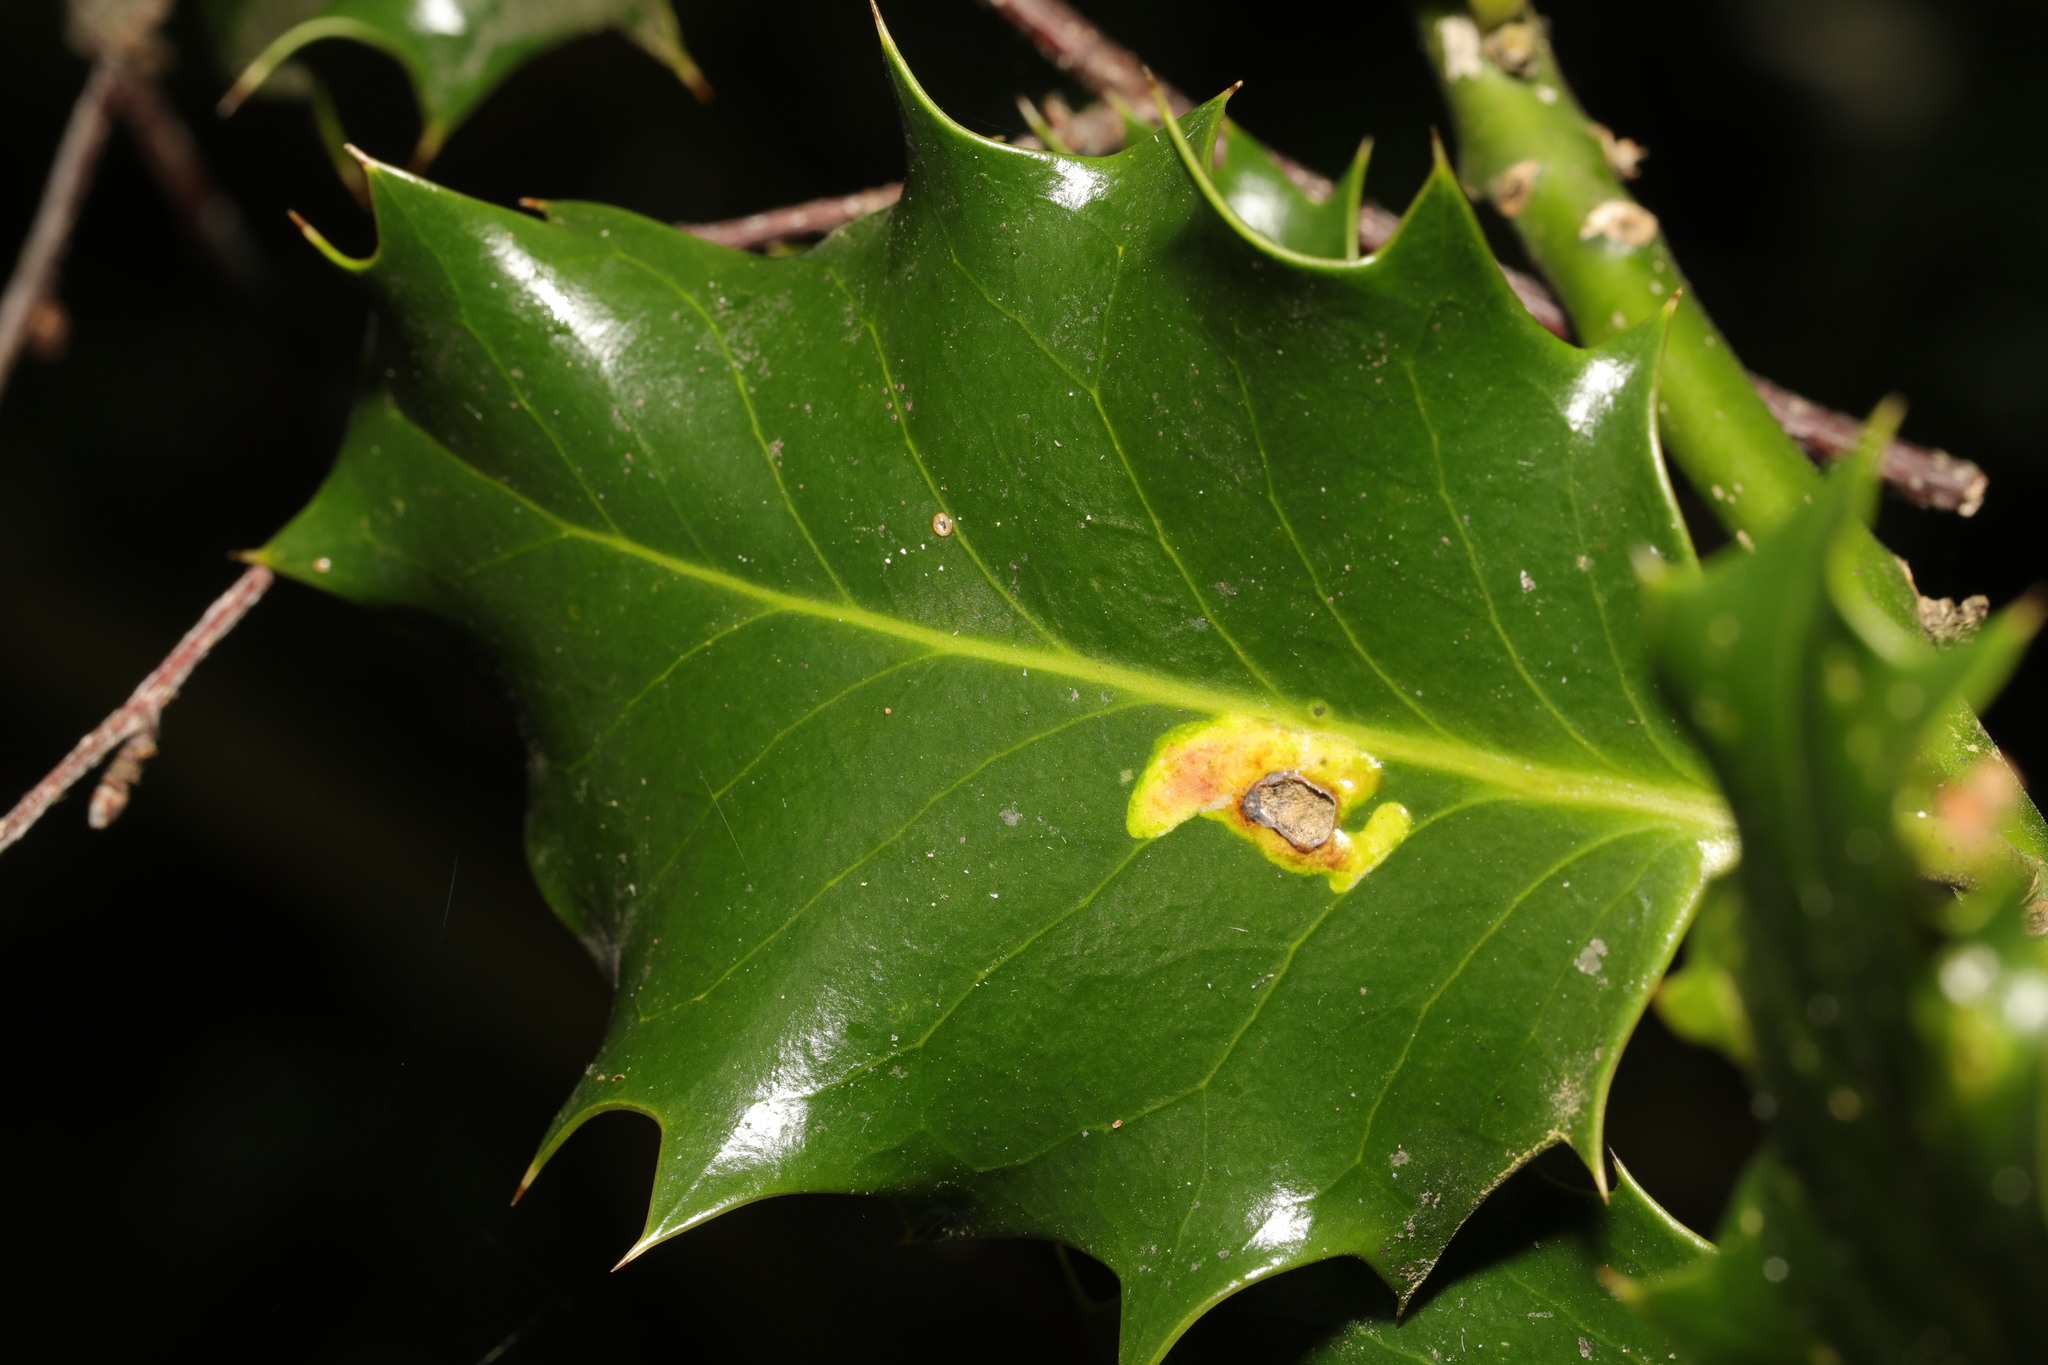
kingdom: Animalia
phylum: Arthropoda
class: Insecta
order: Diptera
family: Agromyzidae
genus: Phytomyza
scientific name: Phytomyza ilicis
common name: Holly leafminer
